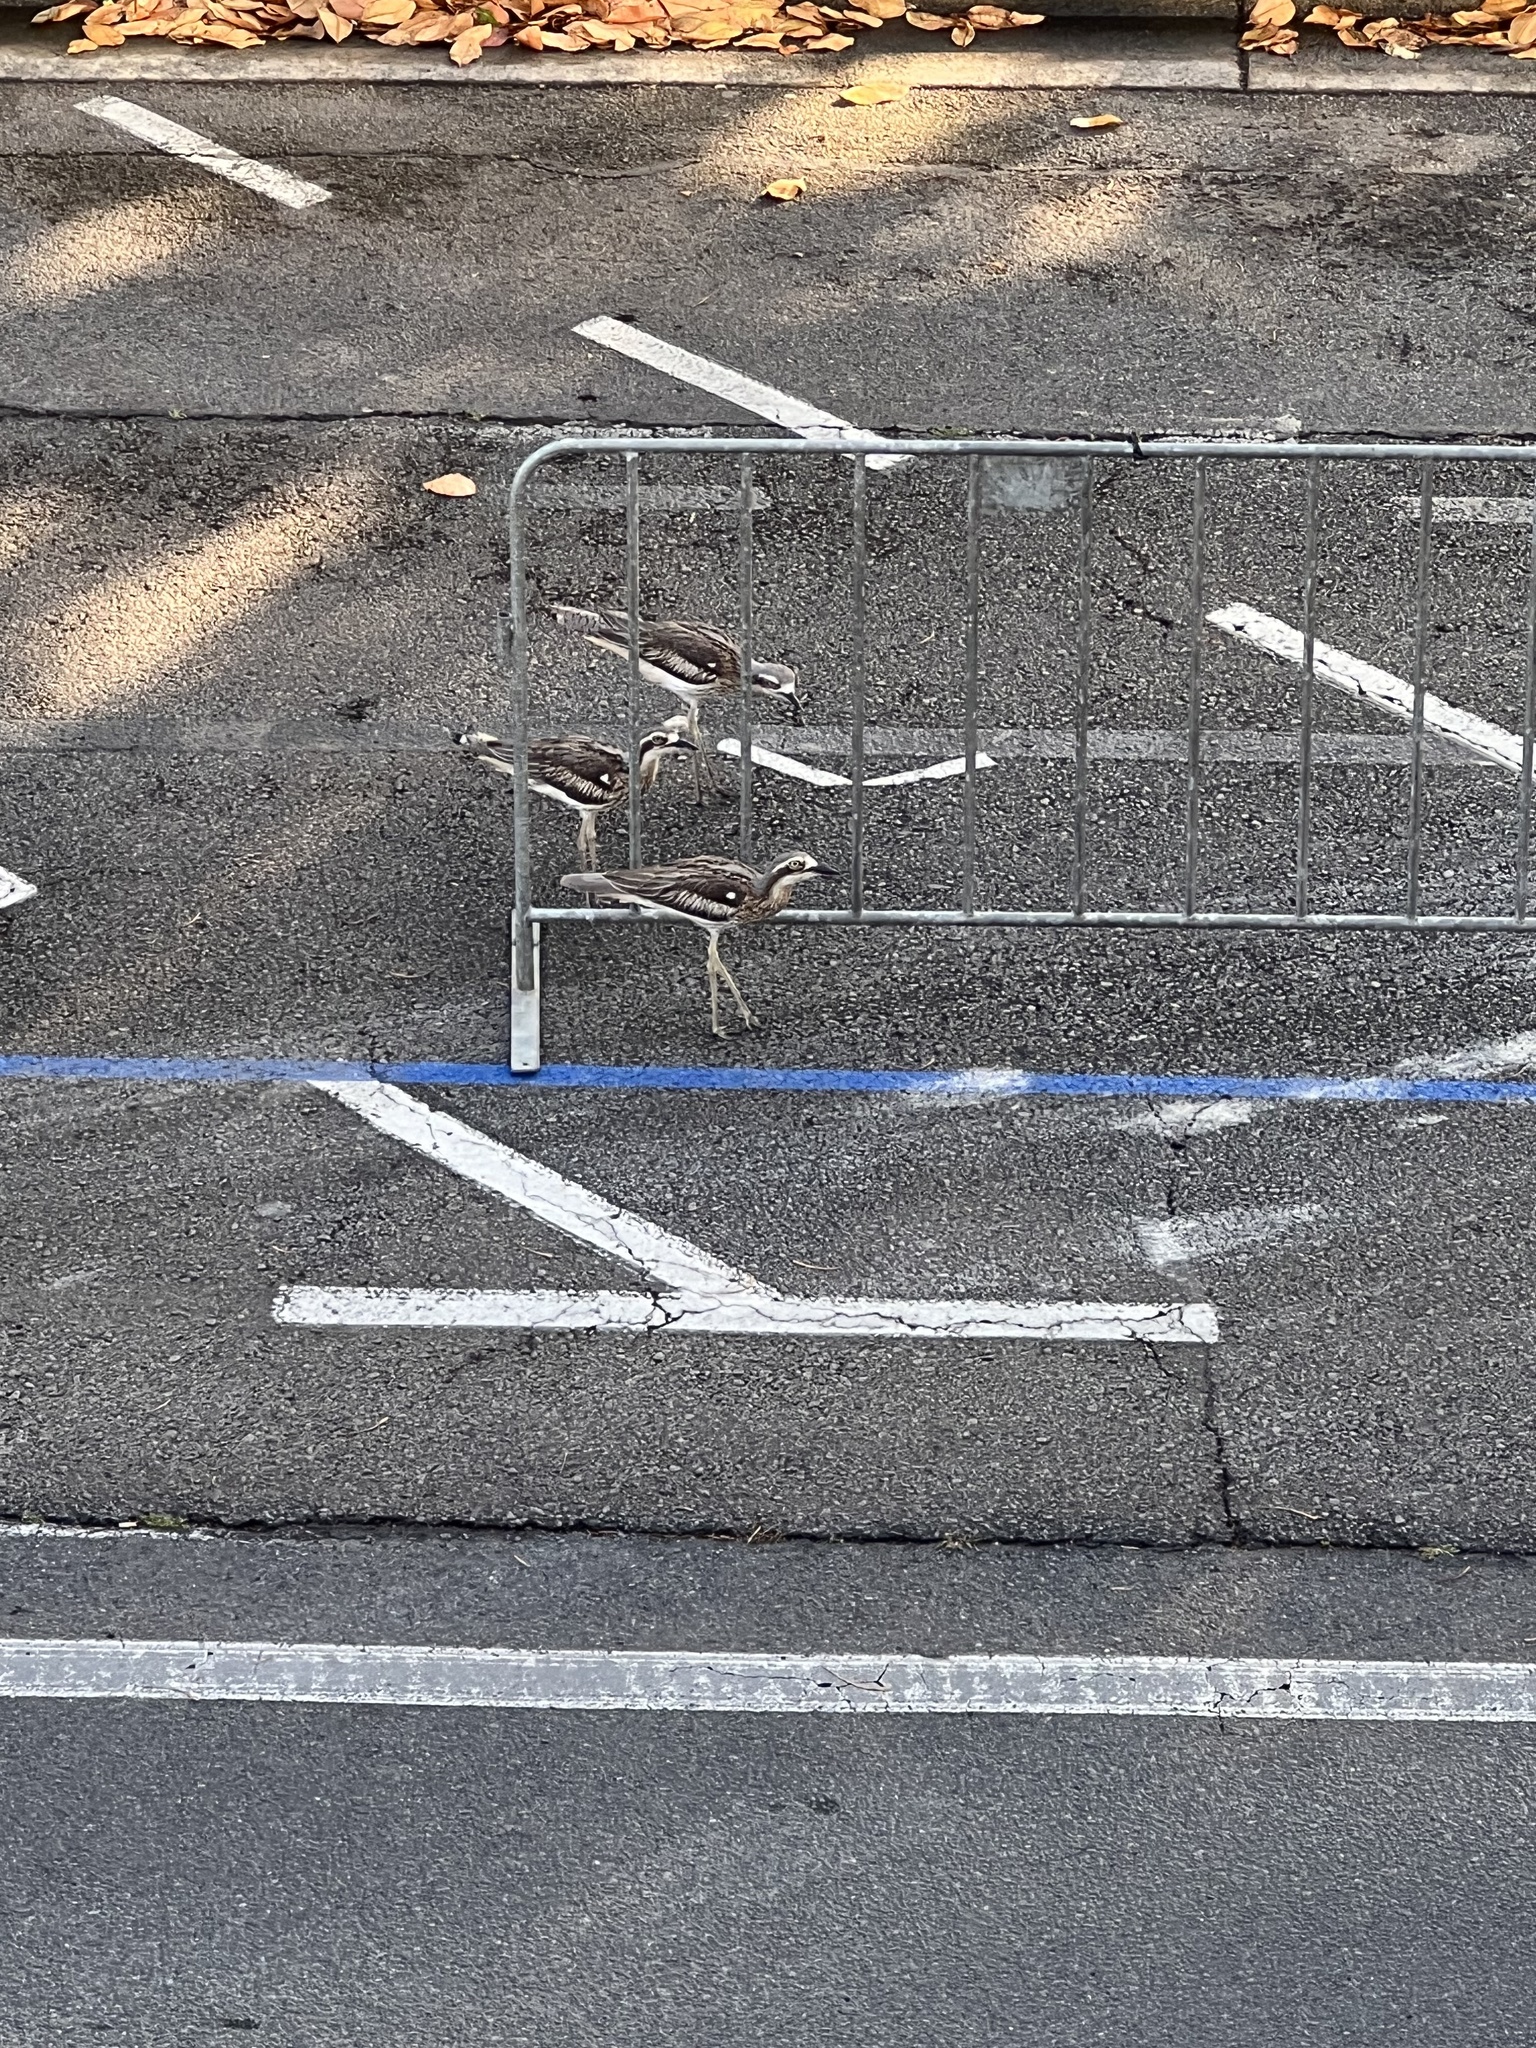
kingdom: Animalia
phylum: Chordata
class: Aves
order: Charadriiformes
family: Burhinidae
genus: Burhinus
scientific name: Burhinus grallarius
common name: Bush stone-curlew
